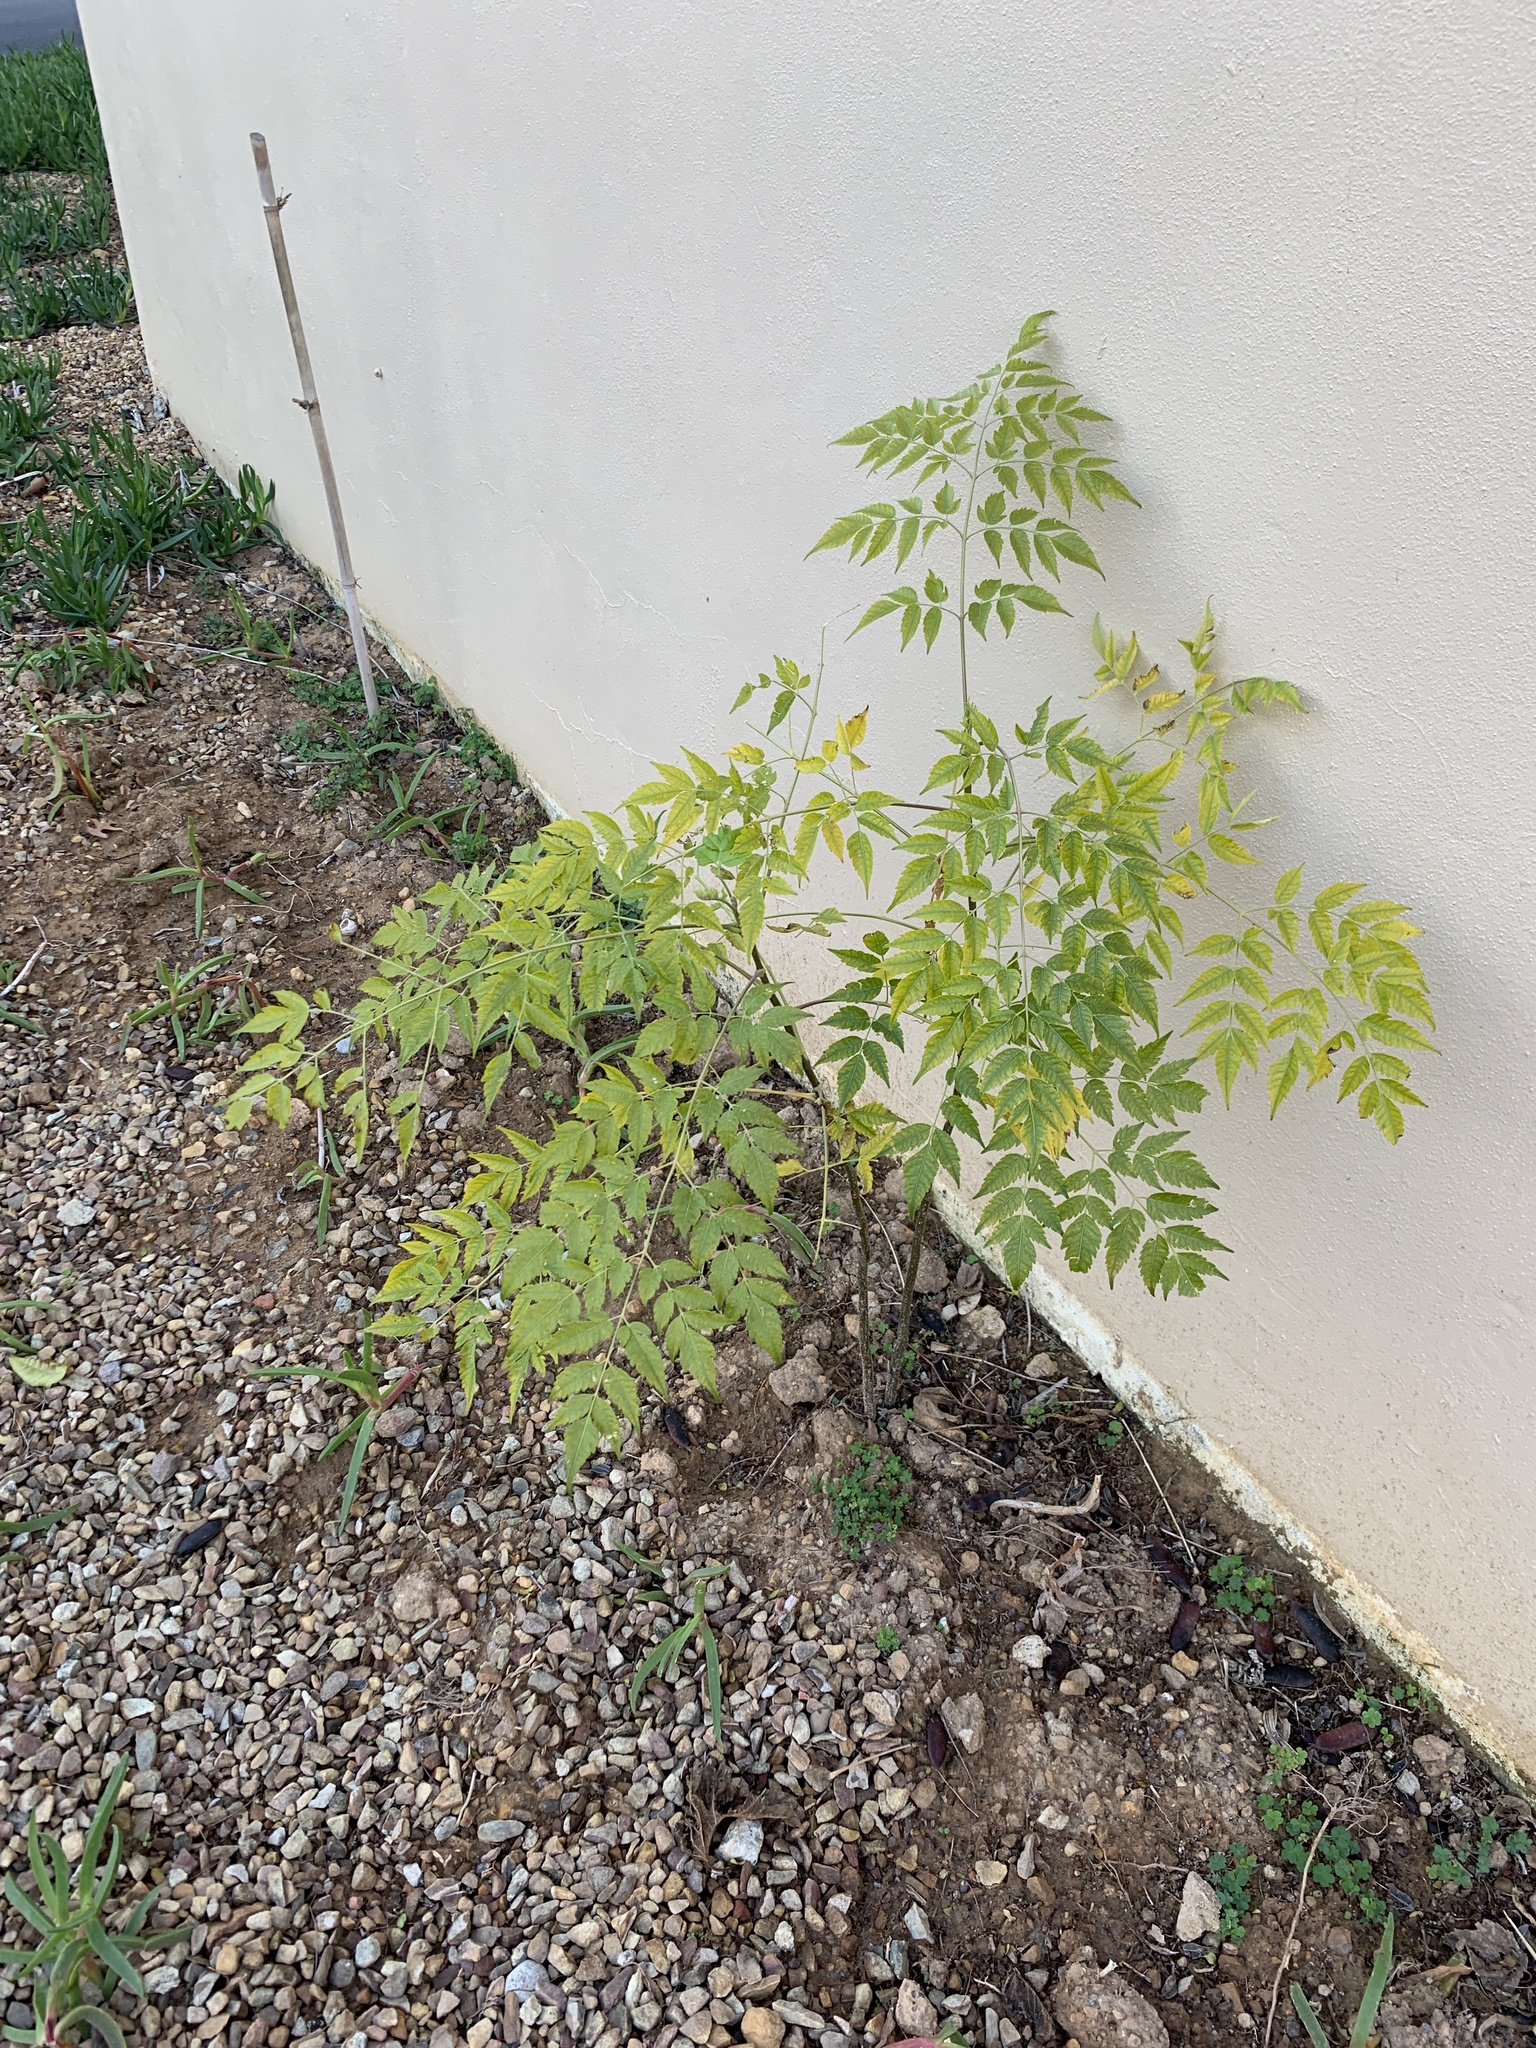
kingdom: Plantae
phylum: Tracheophyta
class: Magnoliopsida
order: Sapindales
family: Meliaceae
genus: Melia
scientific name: Melia azedarach
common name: Chinaberrytree
